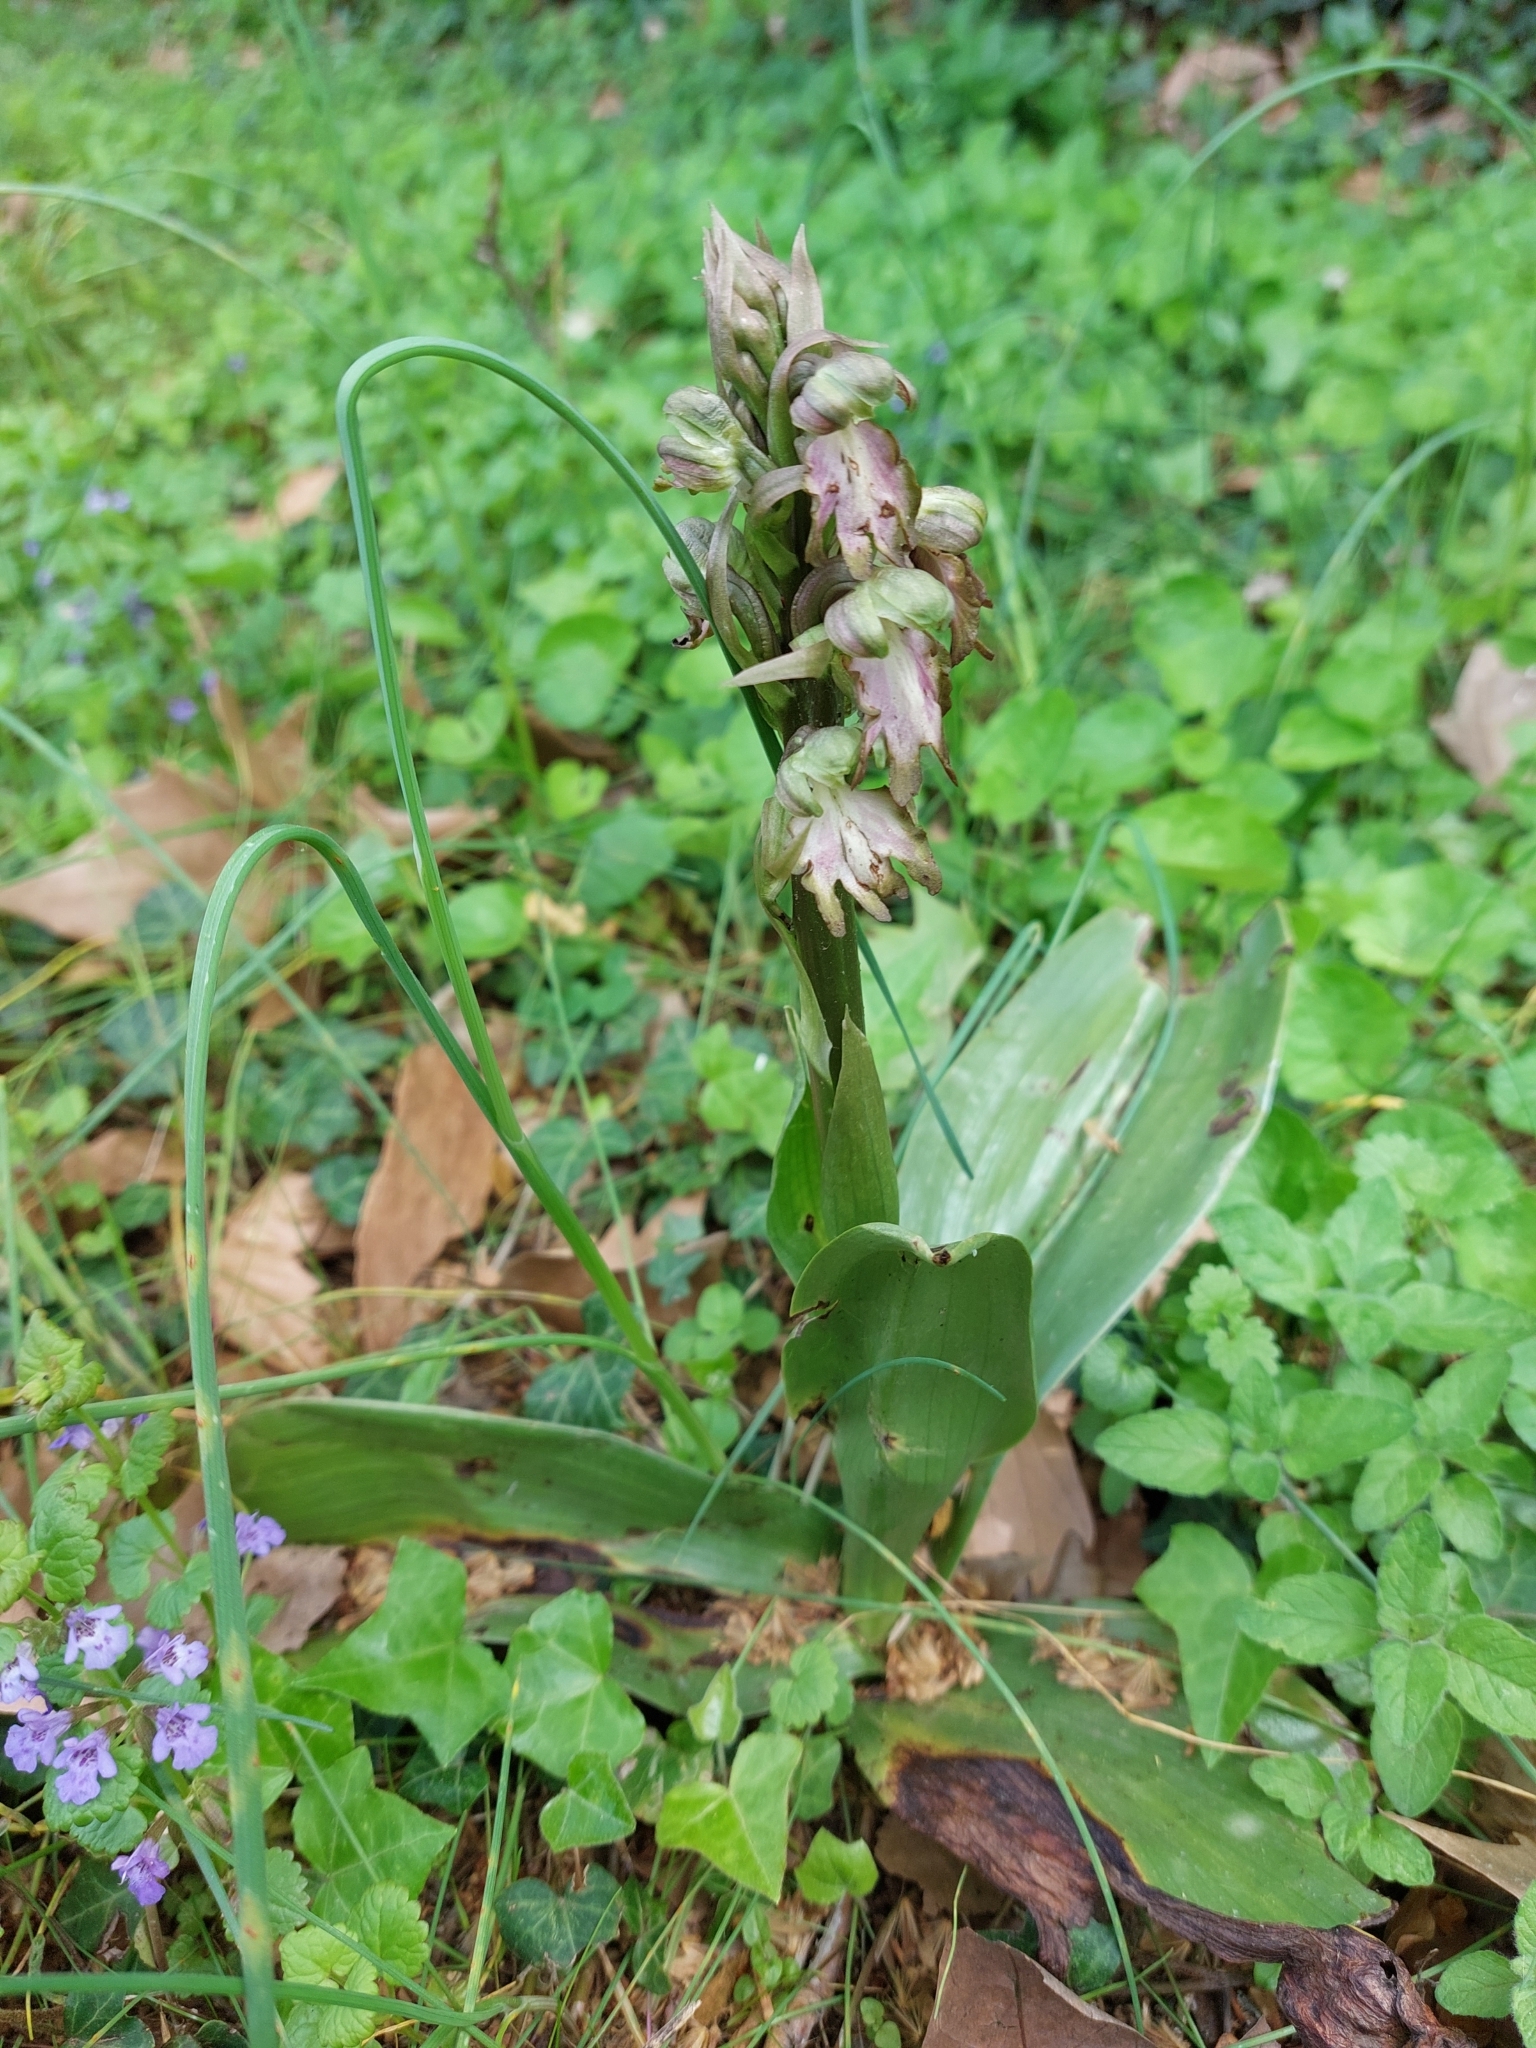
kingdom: Plantae
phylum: Tracheophyta
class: Liliopsida
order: Asparagales
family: Orchidaceae
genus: Himantoglossum
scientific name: Himantoglossum robertianum
